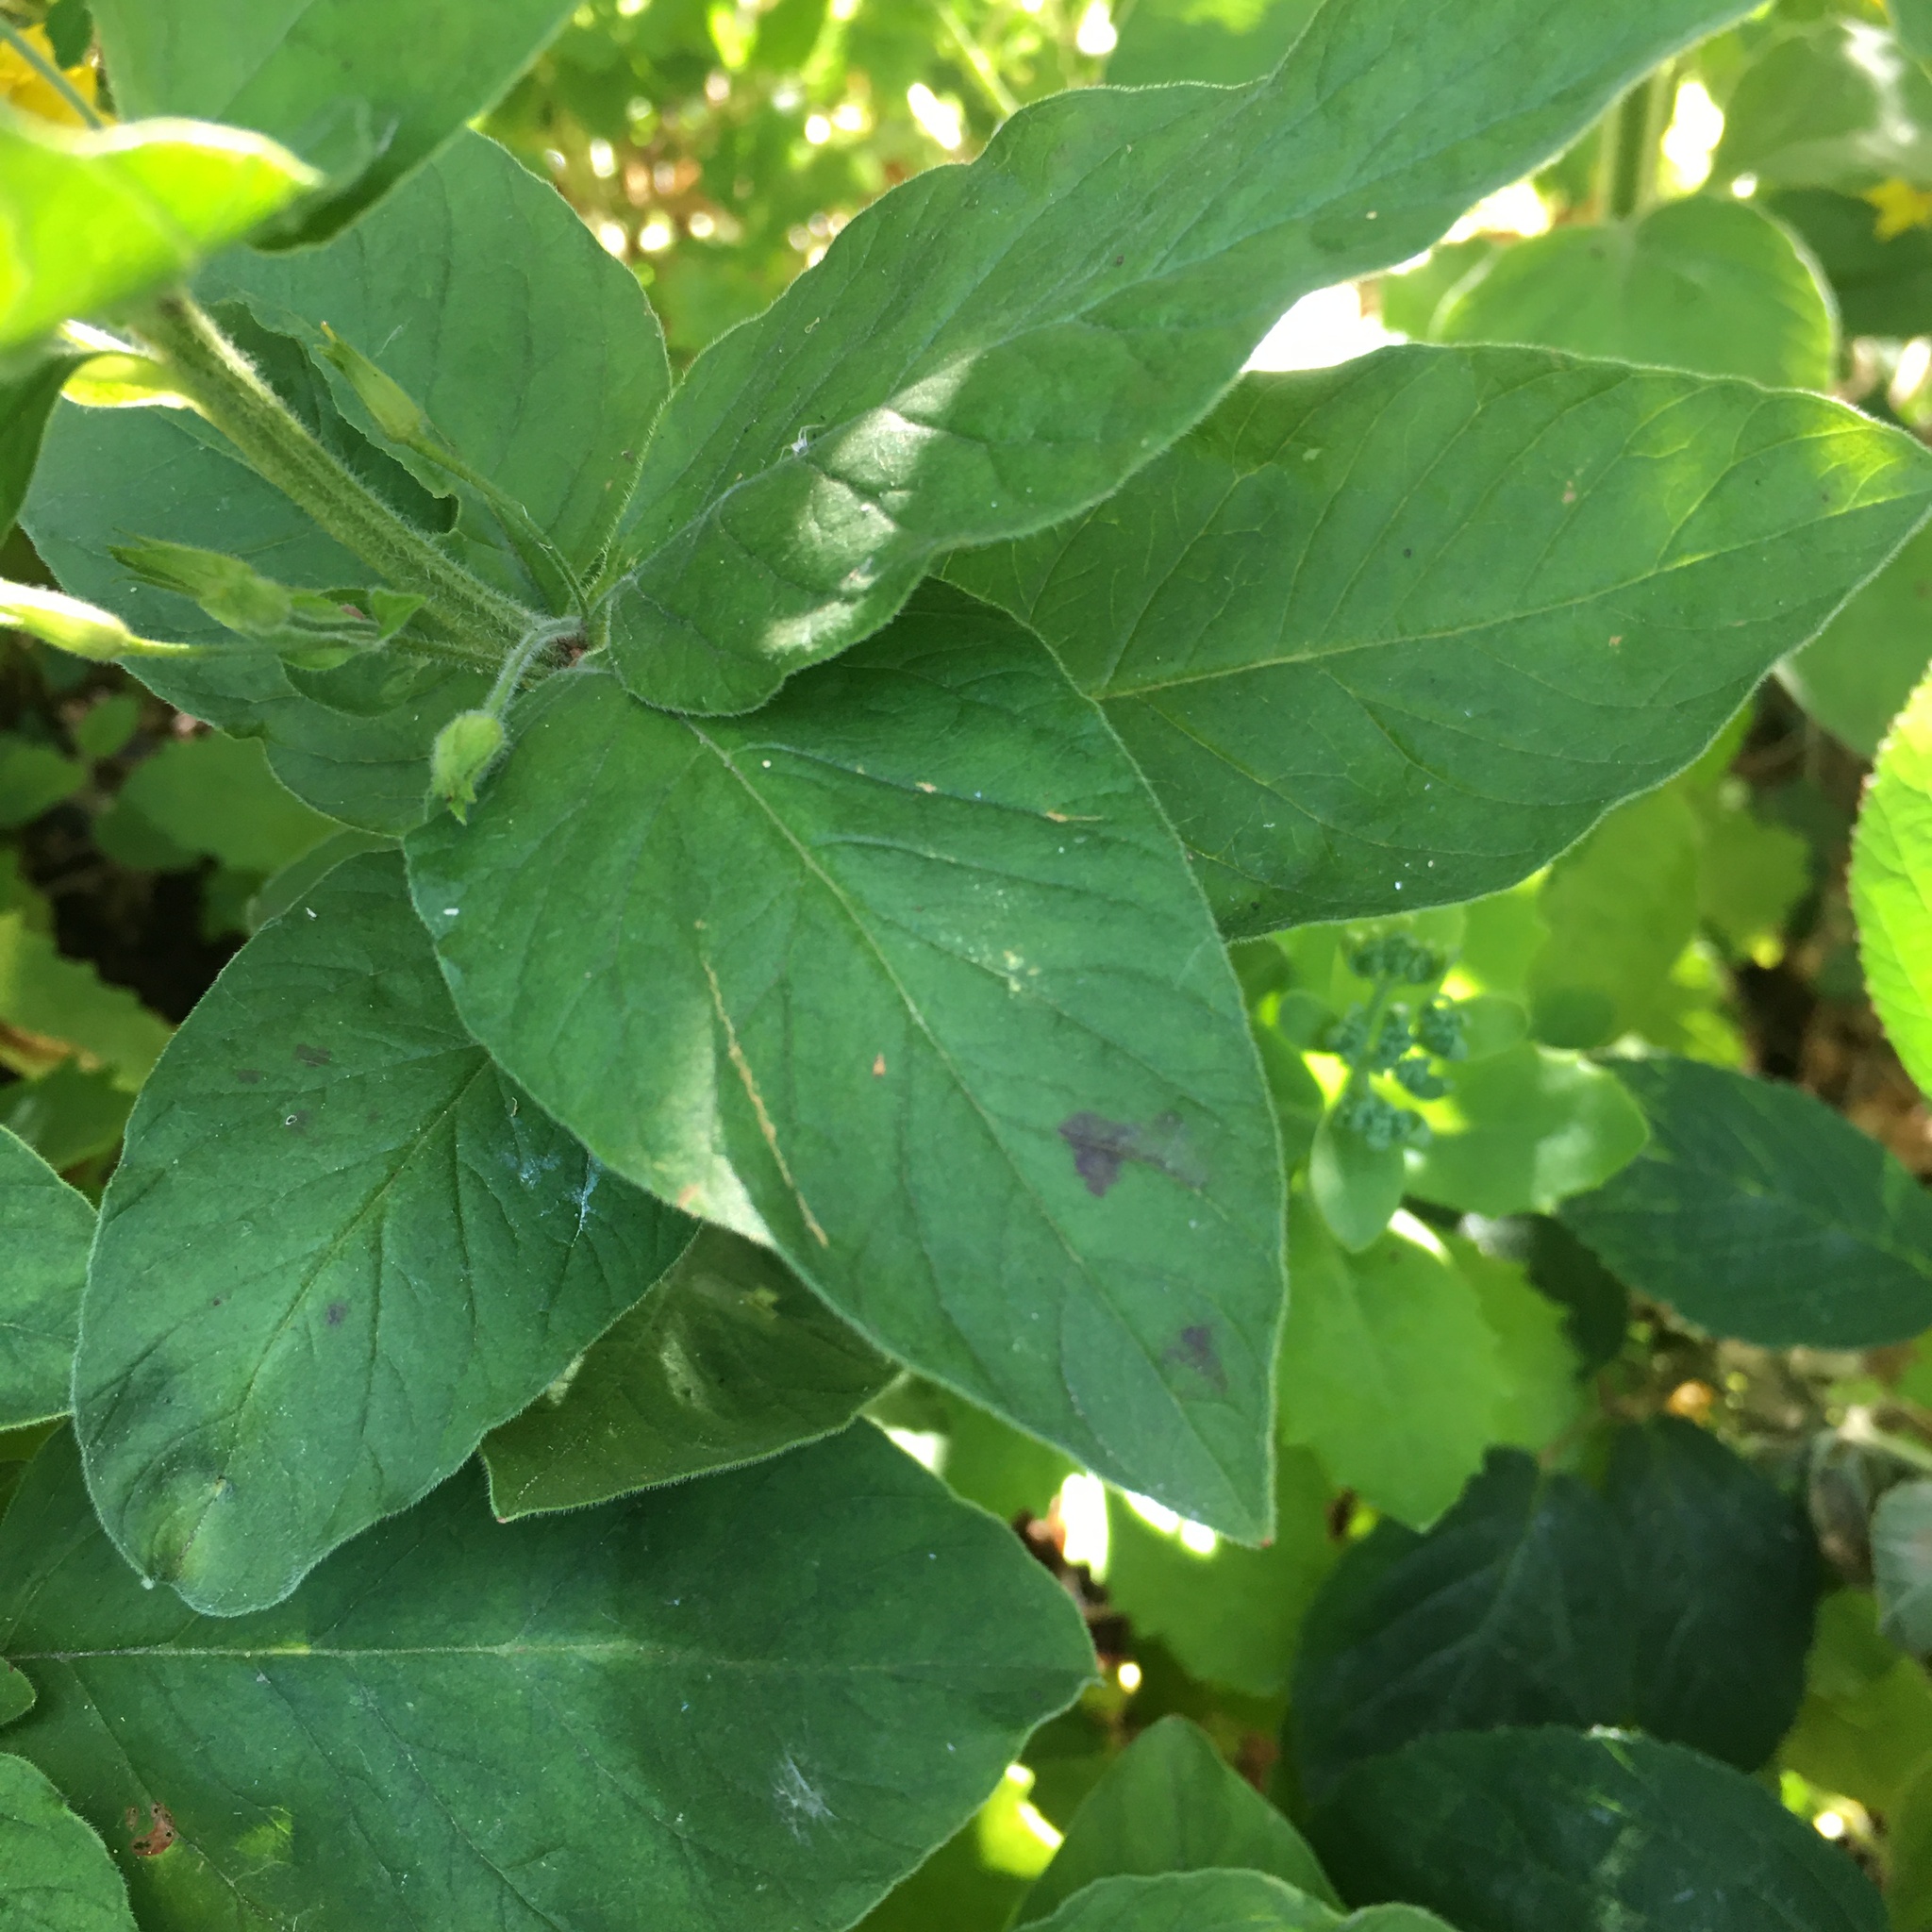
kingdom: Plantae
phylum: Tracheophyta
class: Magnoliopsida
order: Ericales
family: Primulaceae
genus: Lysimachia
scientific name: Lysimachia punctata
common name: Dotted loosestrife
